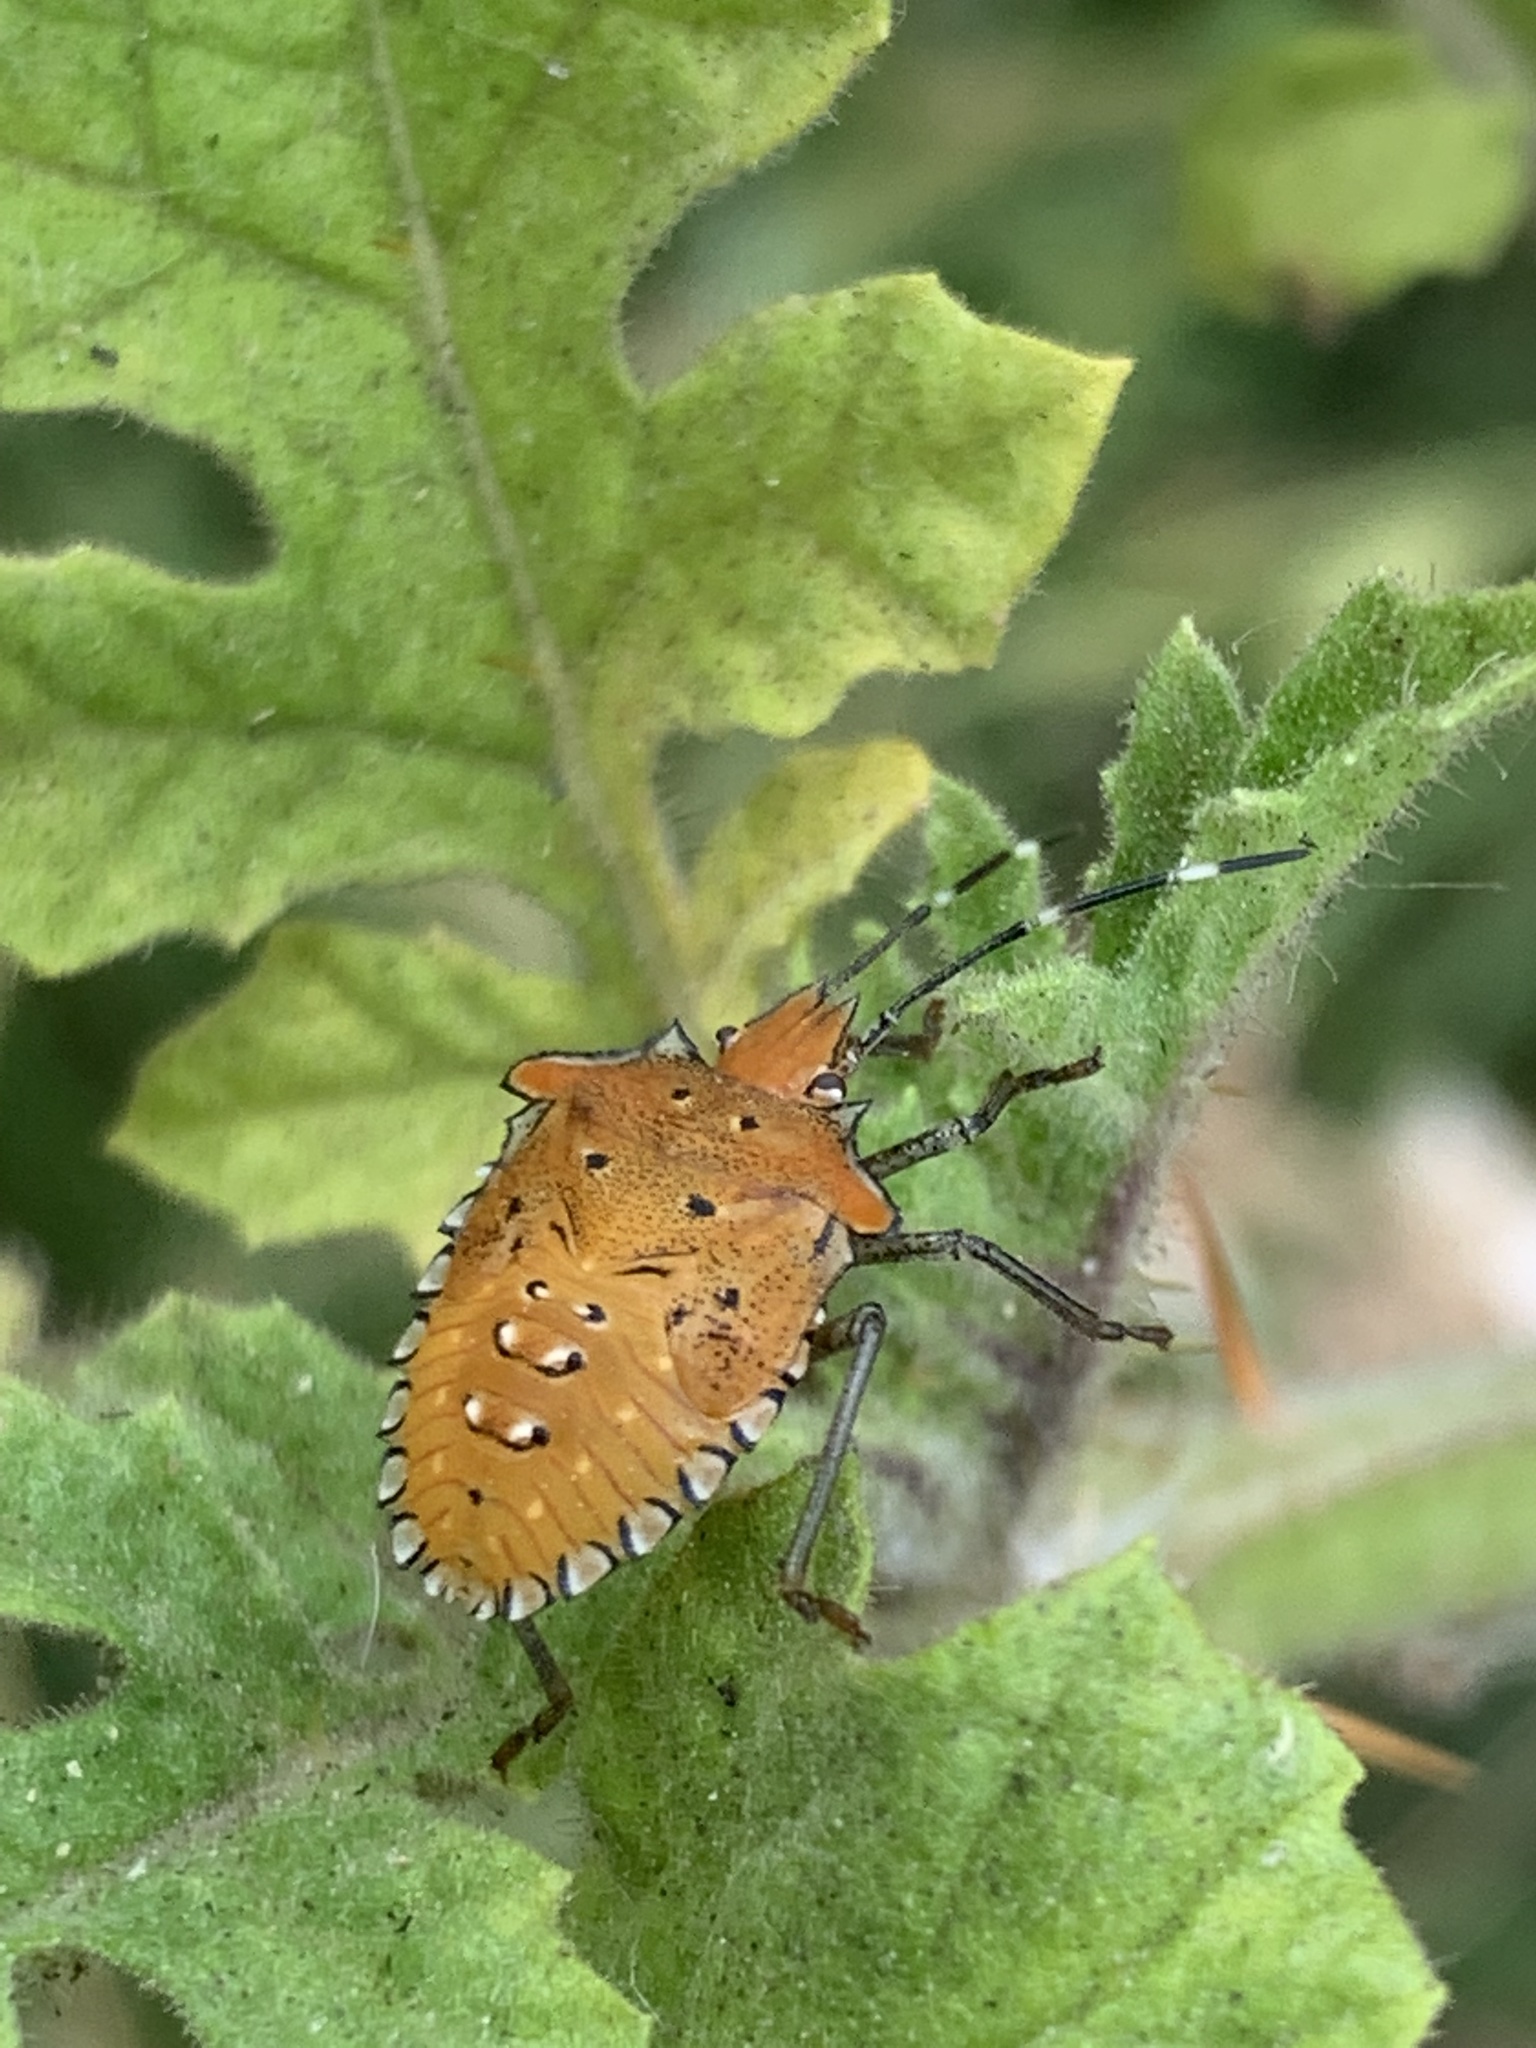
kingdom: Animalia
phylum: Arthropoda
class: Insecta
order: Hemiptera
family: Pentatomidae
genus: Arvelius
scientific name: Arvelius albopunctatus
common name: Tomato stink bug
